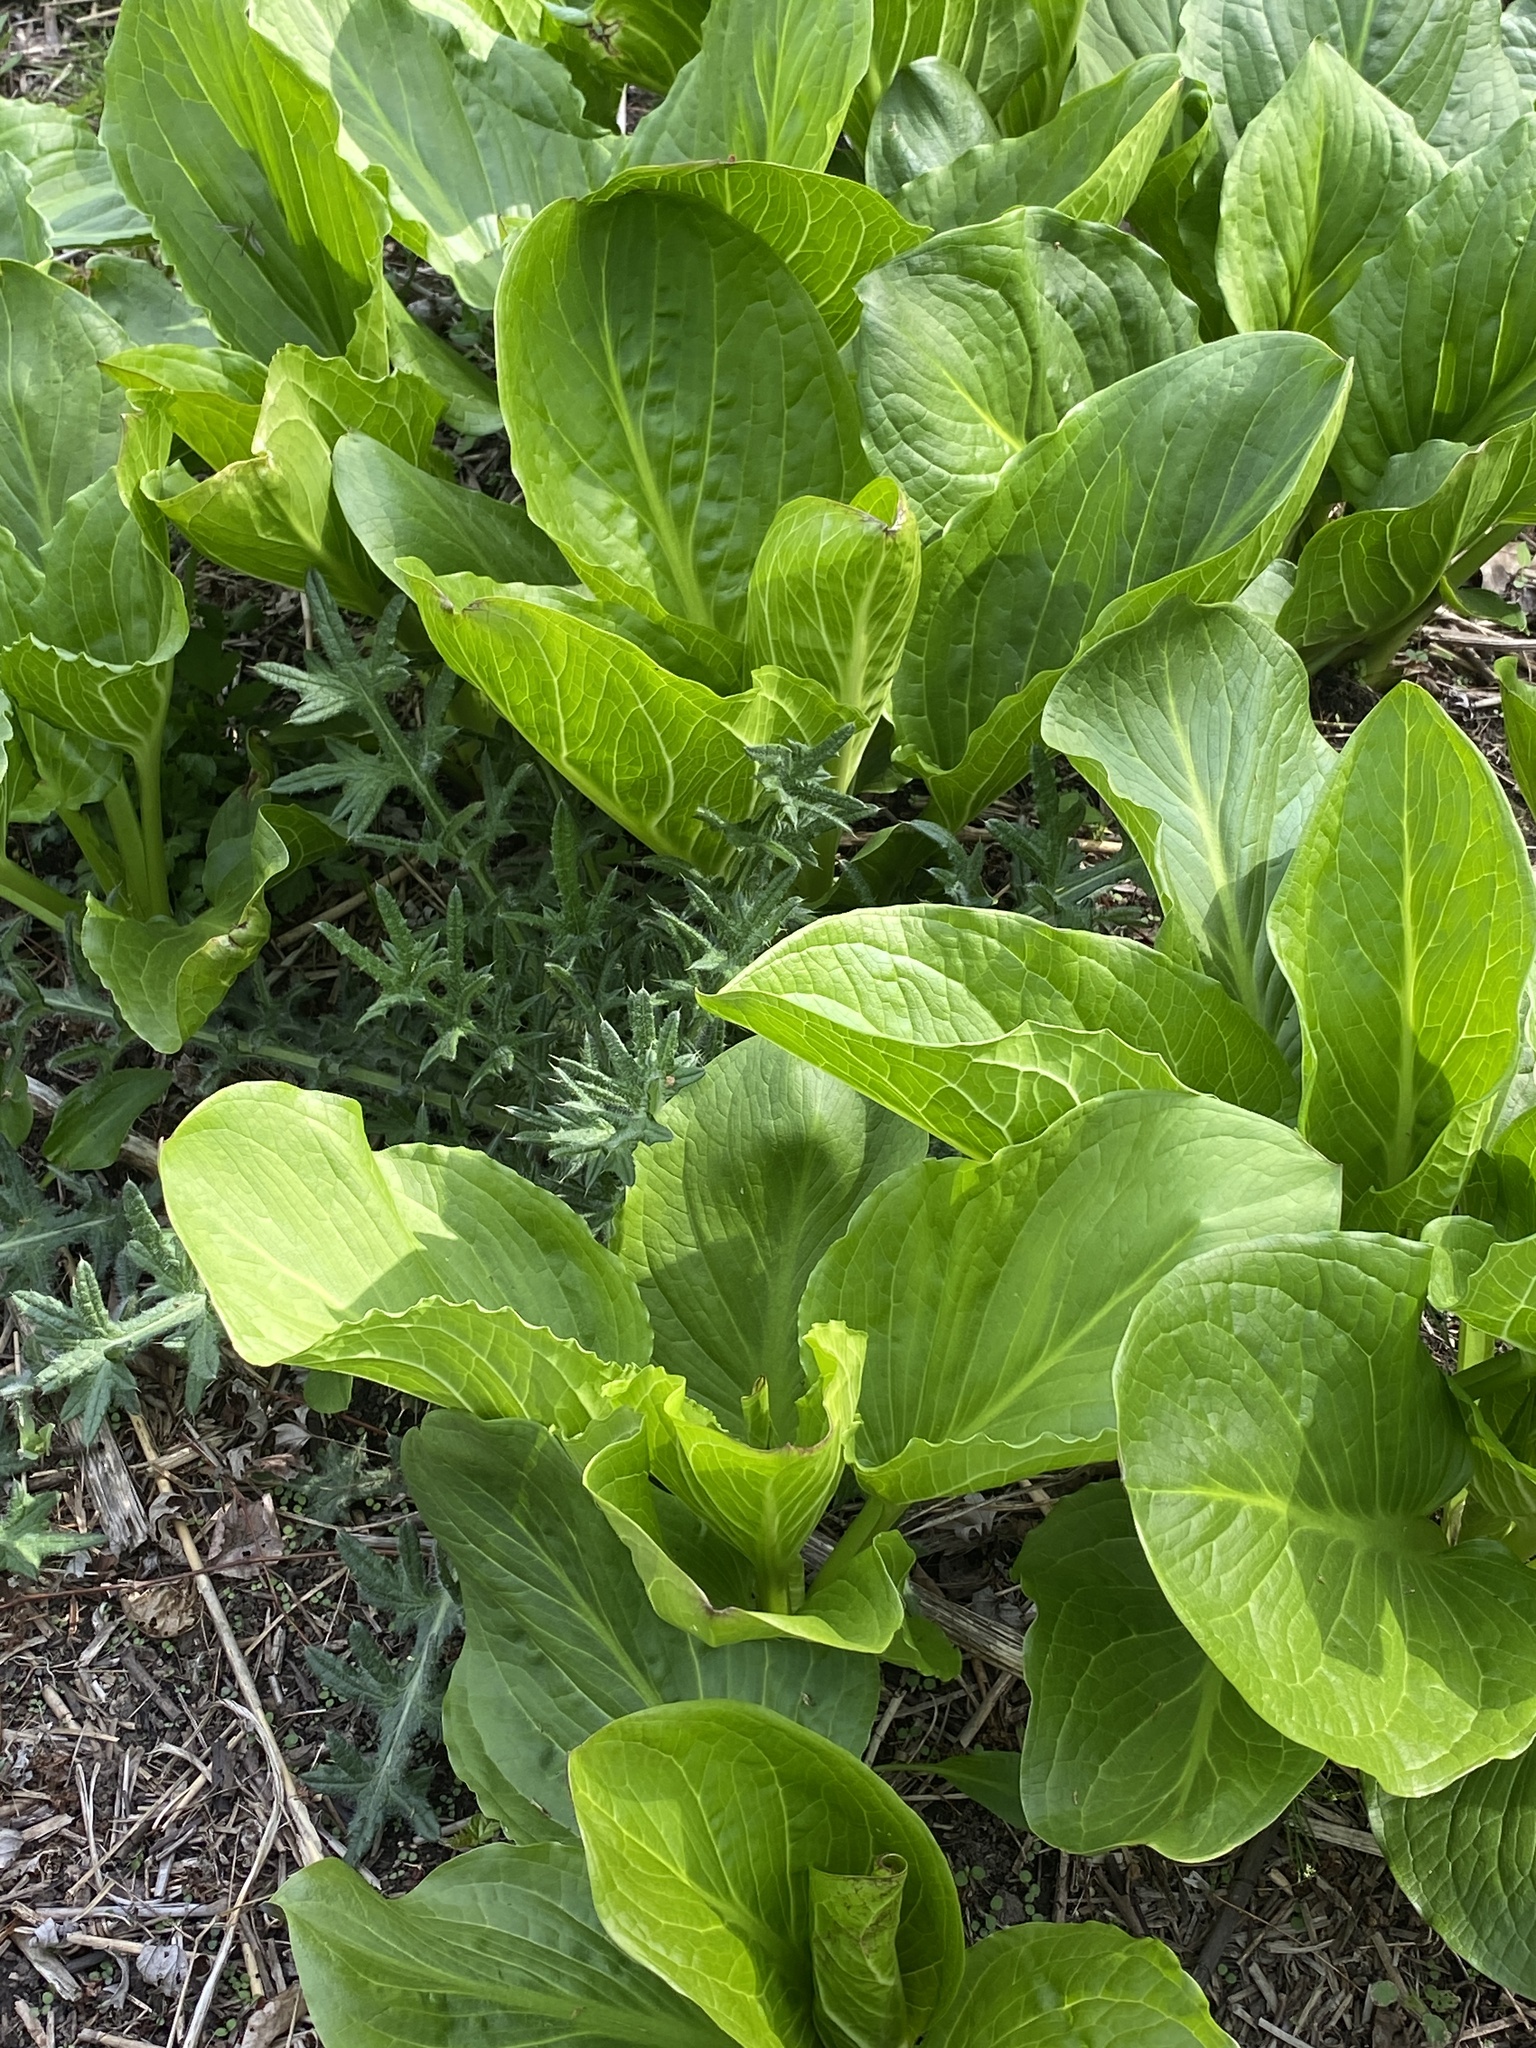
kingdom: Plantae
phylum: Tracheophyta
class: Liliopsida
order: Alismatales
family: Araceae
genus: Symplocarpus
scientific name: Symplocarpus foetidus
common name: Eastern skunk cabbage
